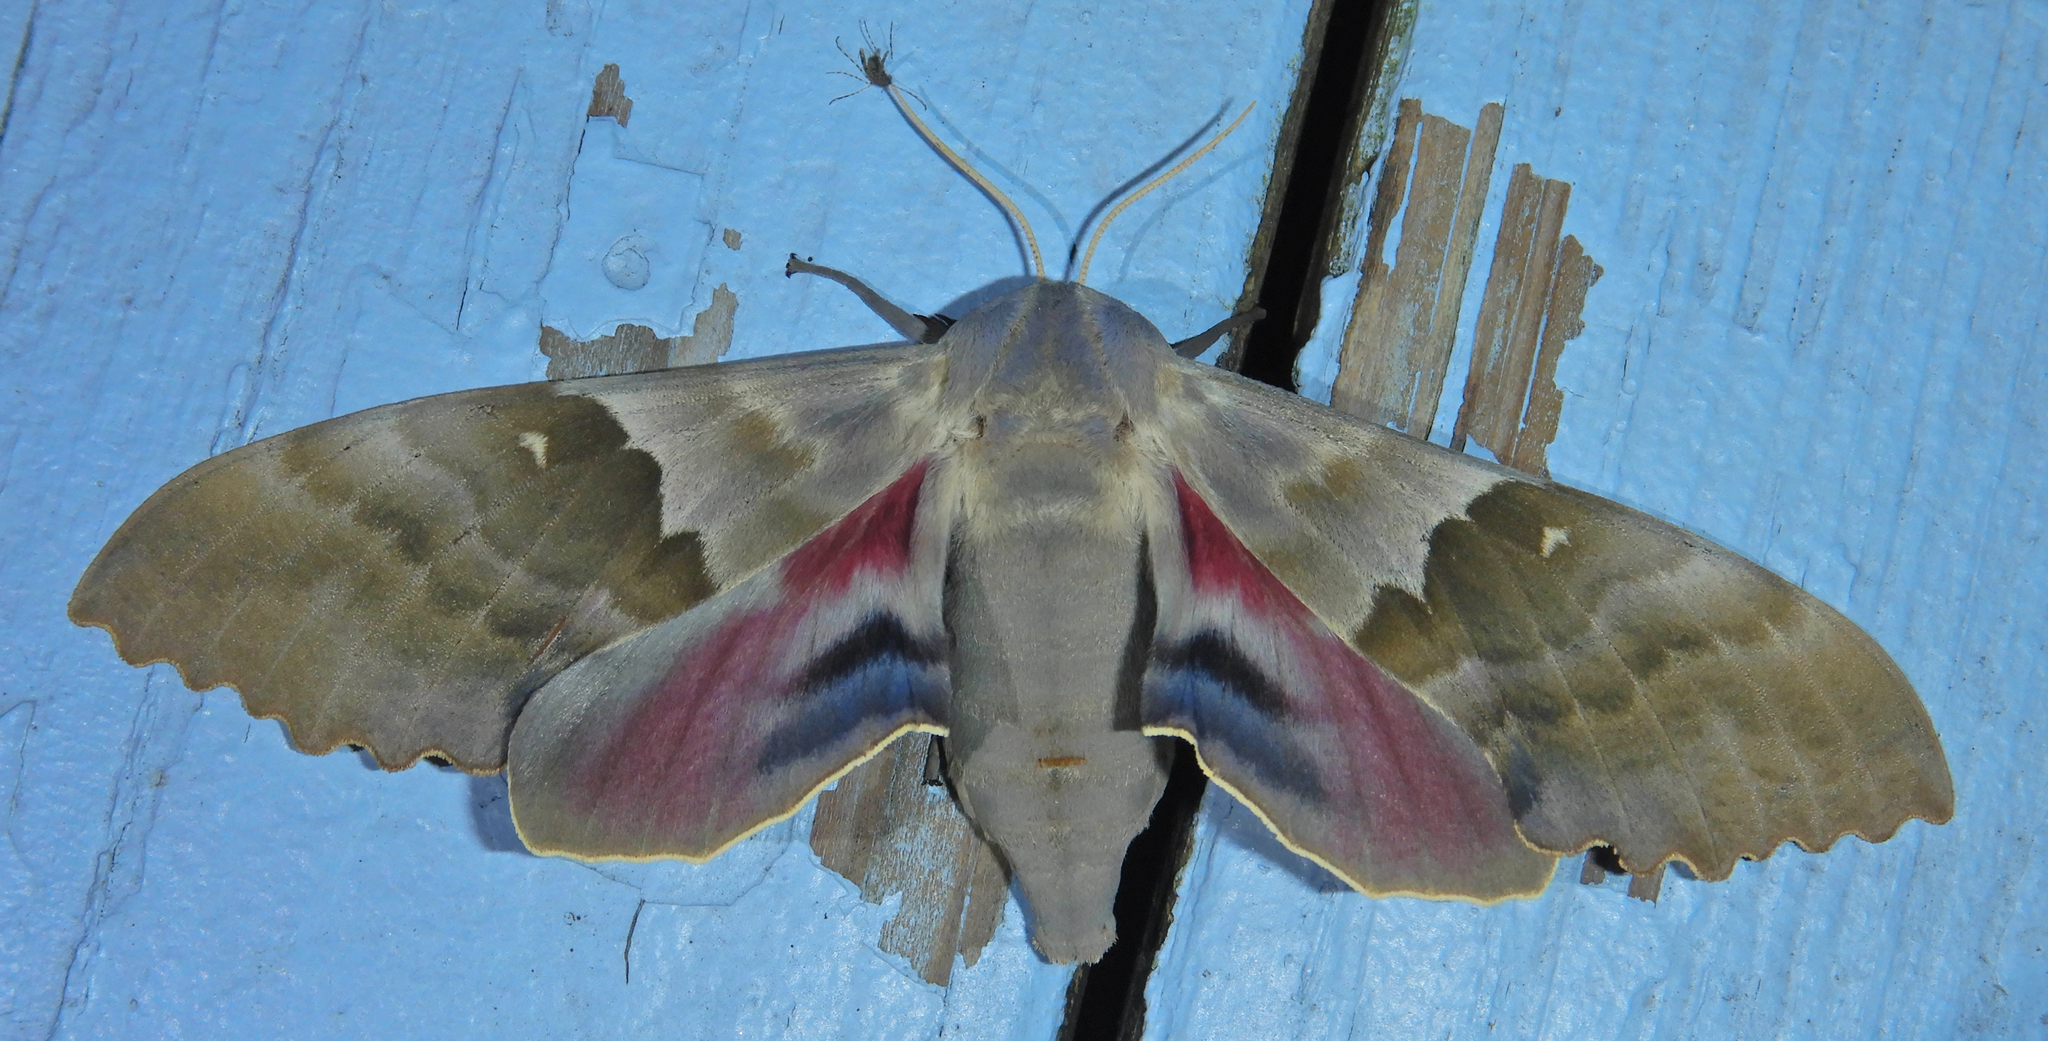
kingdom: Animalia
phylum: Arthropoda
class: Insecta
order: Lepidoptera
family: Sphingidae
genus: Pachysphinx
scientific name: Pachysphinx modesta
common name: Big poplar sphinx
